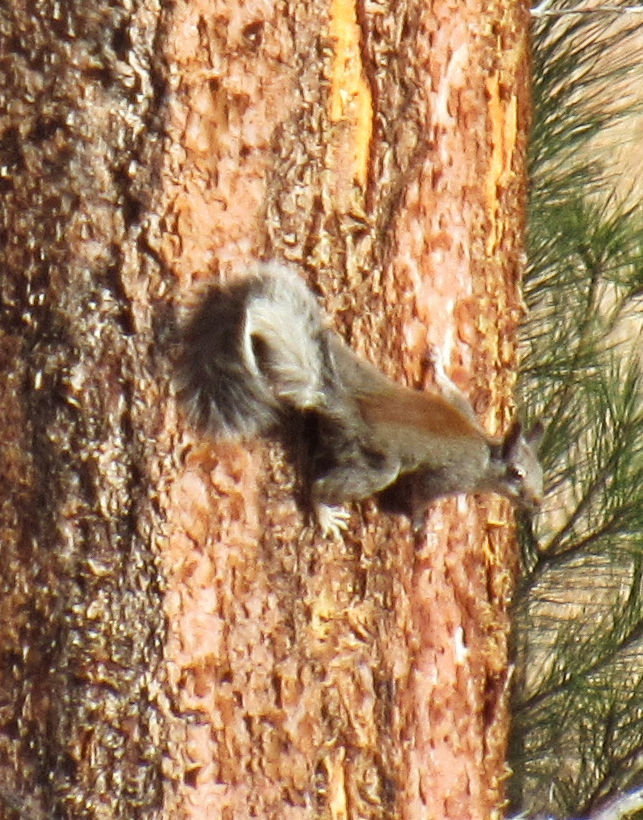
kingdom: Animalia
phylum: Chordata
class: Mammalia
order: Rodentia
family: Sciuridae
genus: Sciurus
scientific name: Sciurus aberti
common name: Abert's squirrel
